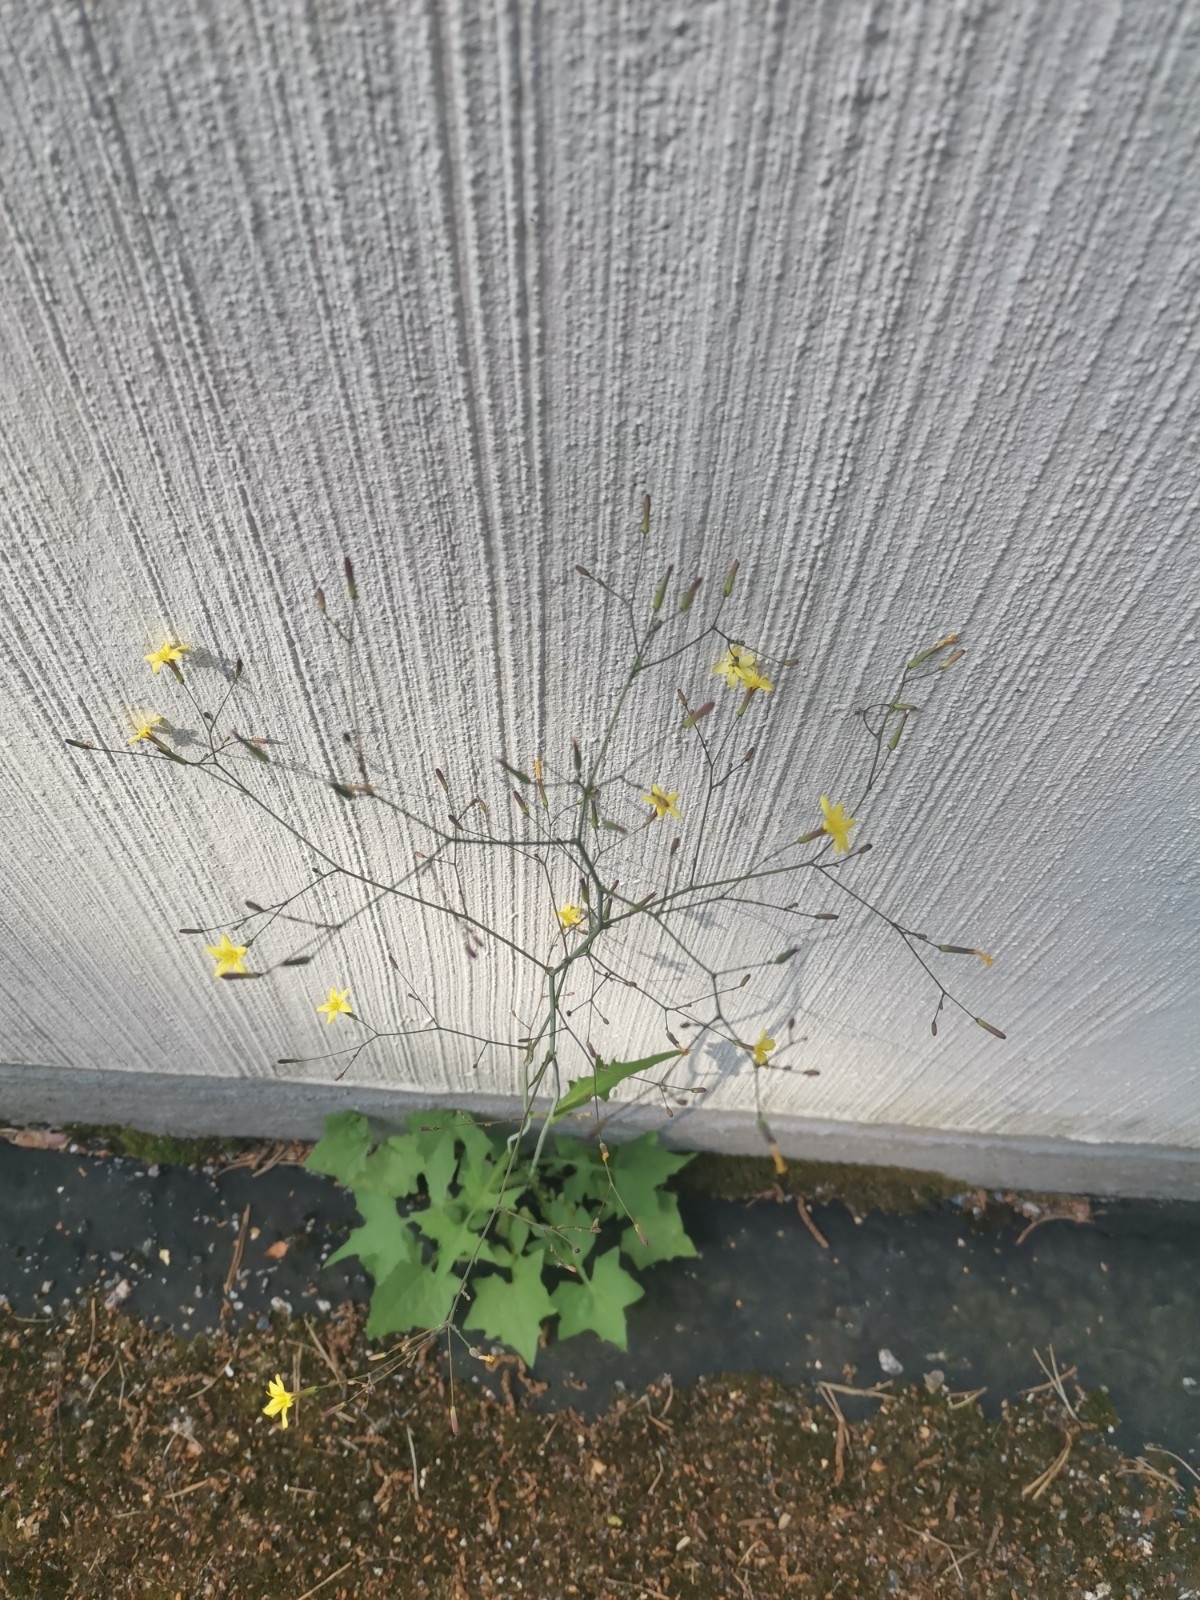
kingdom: Plantae
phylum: Tracheophyta
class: Magnoliopsida
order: Asterales
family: Asteraceae
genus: Mycelis
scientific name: Mycelis muralis
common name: Wall lettuce
